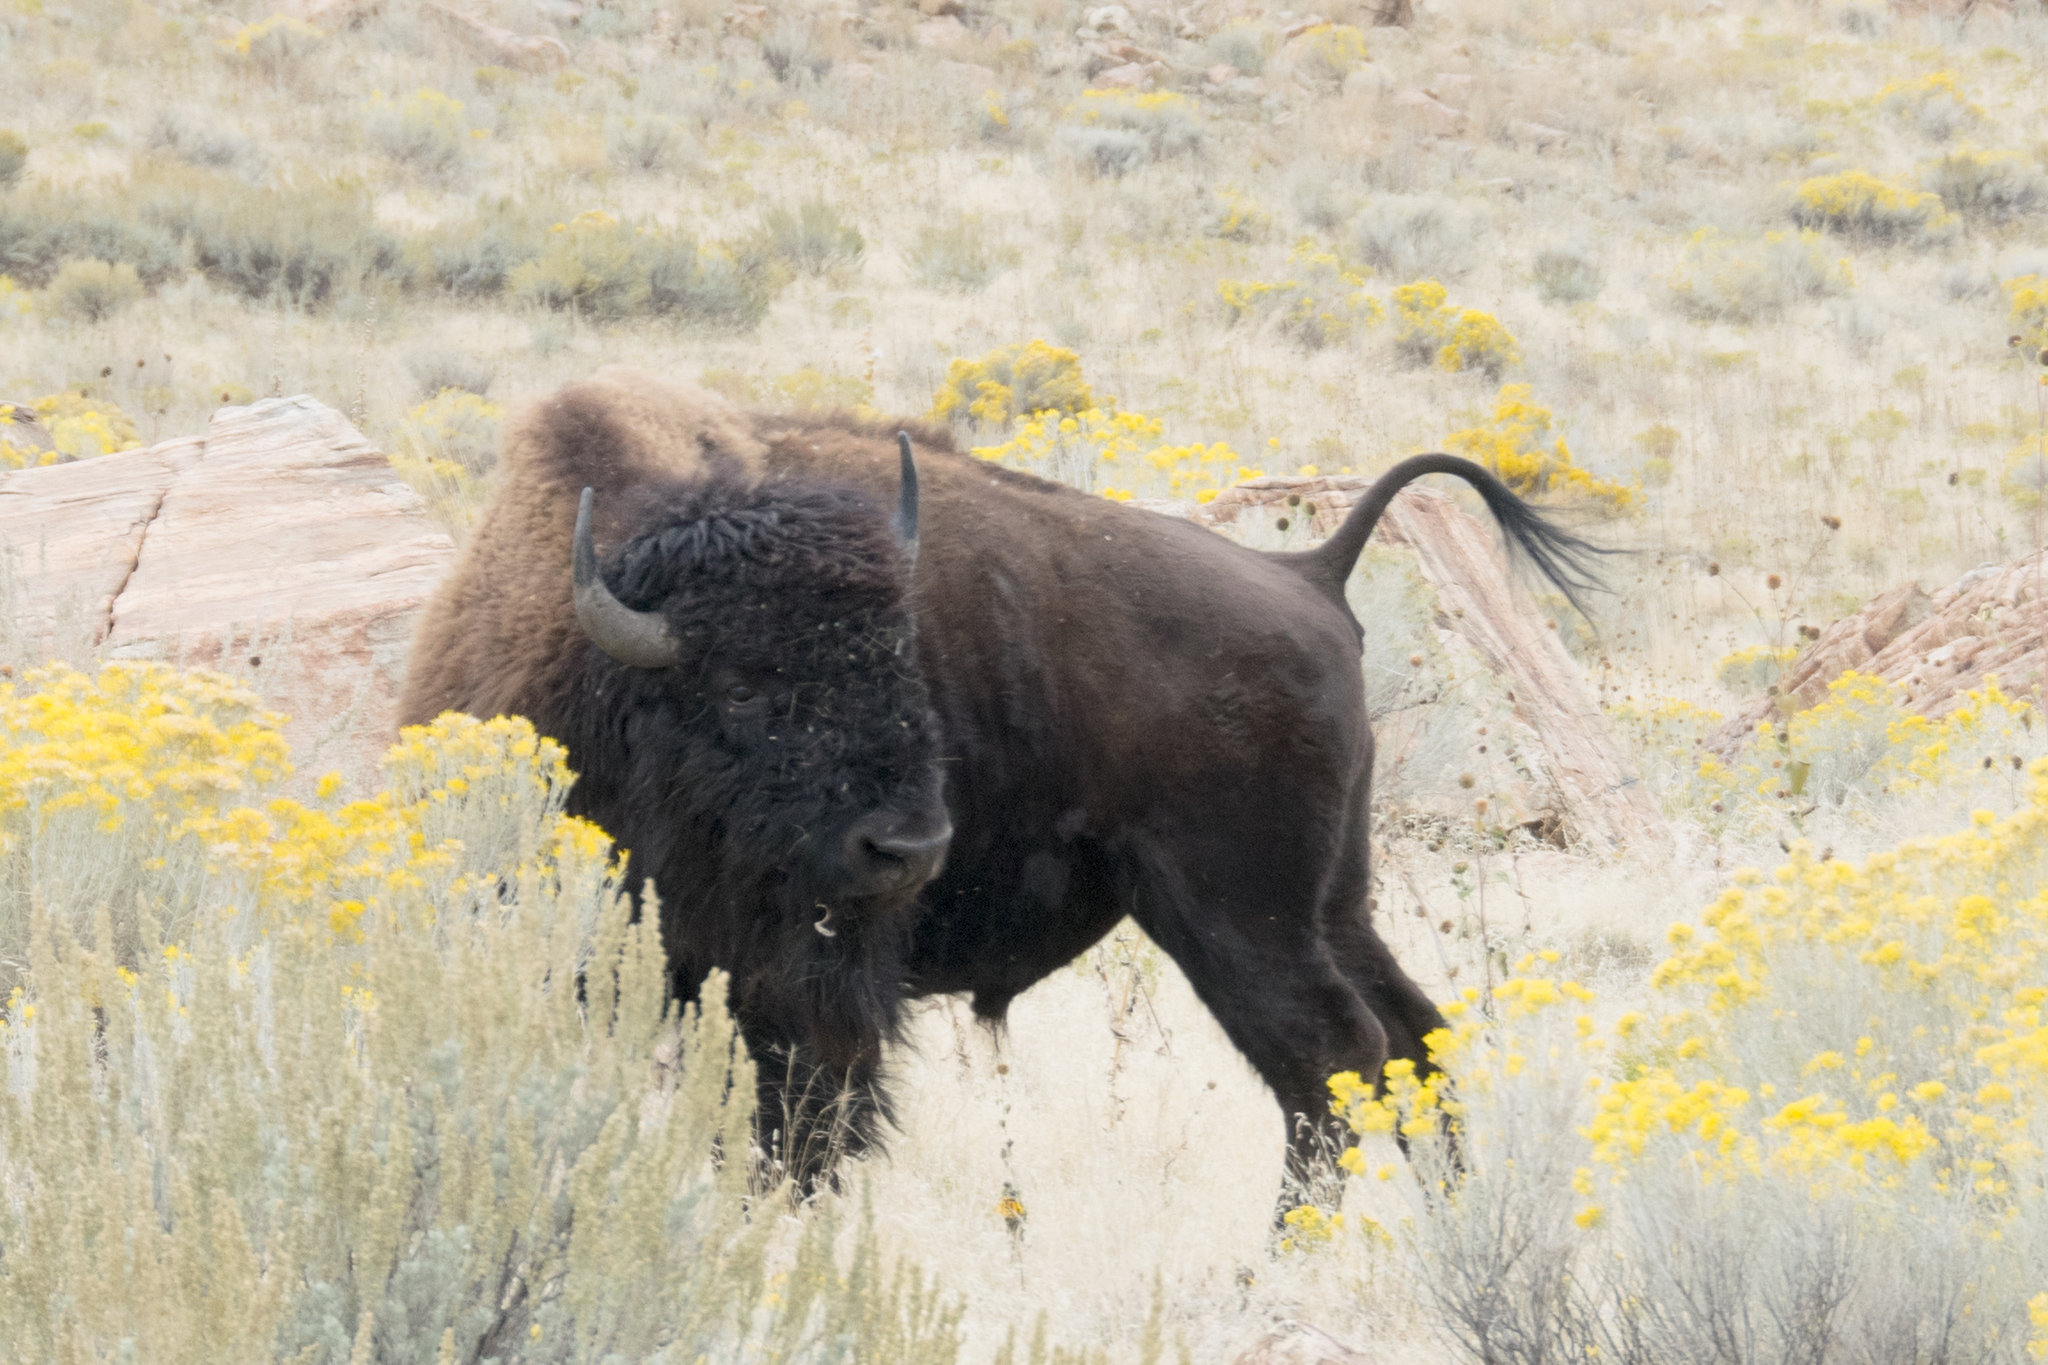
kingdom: Animalia
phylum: Chordata
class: Mammalia
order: Artiodactyla
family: Bovidae
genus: Bison
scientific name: Bison bison
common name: American bison
